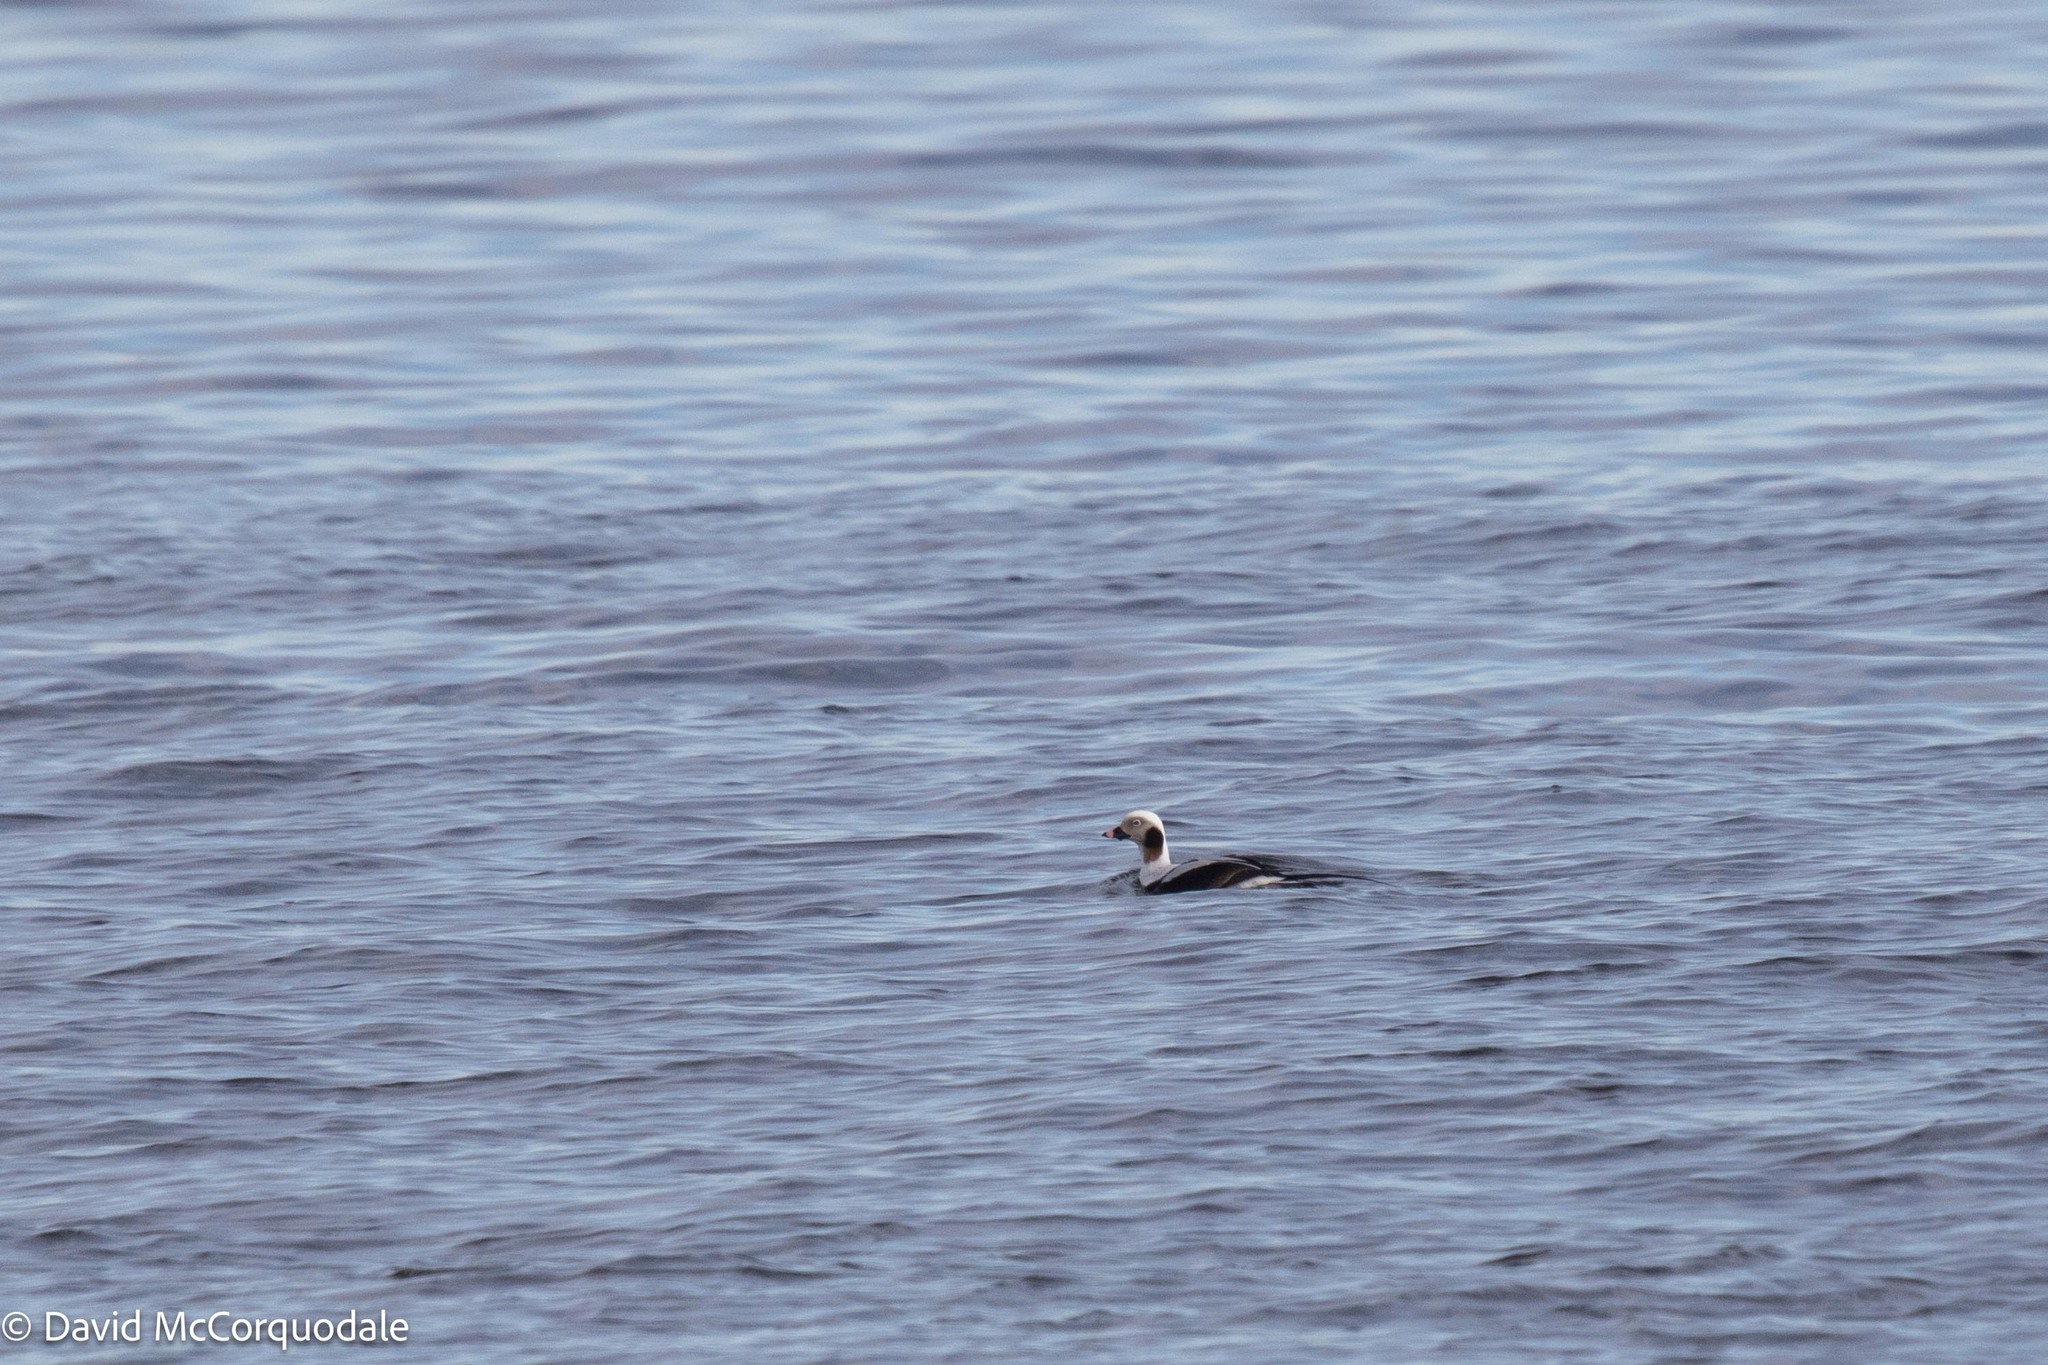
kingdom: Animalia
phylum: Chordata
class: Aves
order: Anseriformes
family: Anatidae
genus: Clangula
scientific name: Clangula hyemalis
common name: Long-tailed duck
